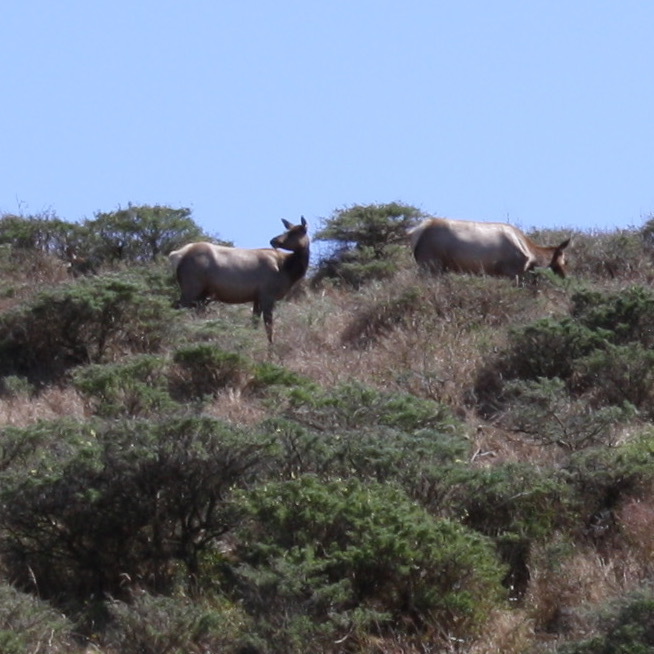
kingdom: Animalia
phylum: Chordata
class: Mammalia
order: Artiodactyla
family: Cervidae
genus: Cervus
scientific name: Cervus elaphus
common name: Red deer
